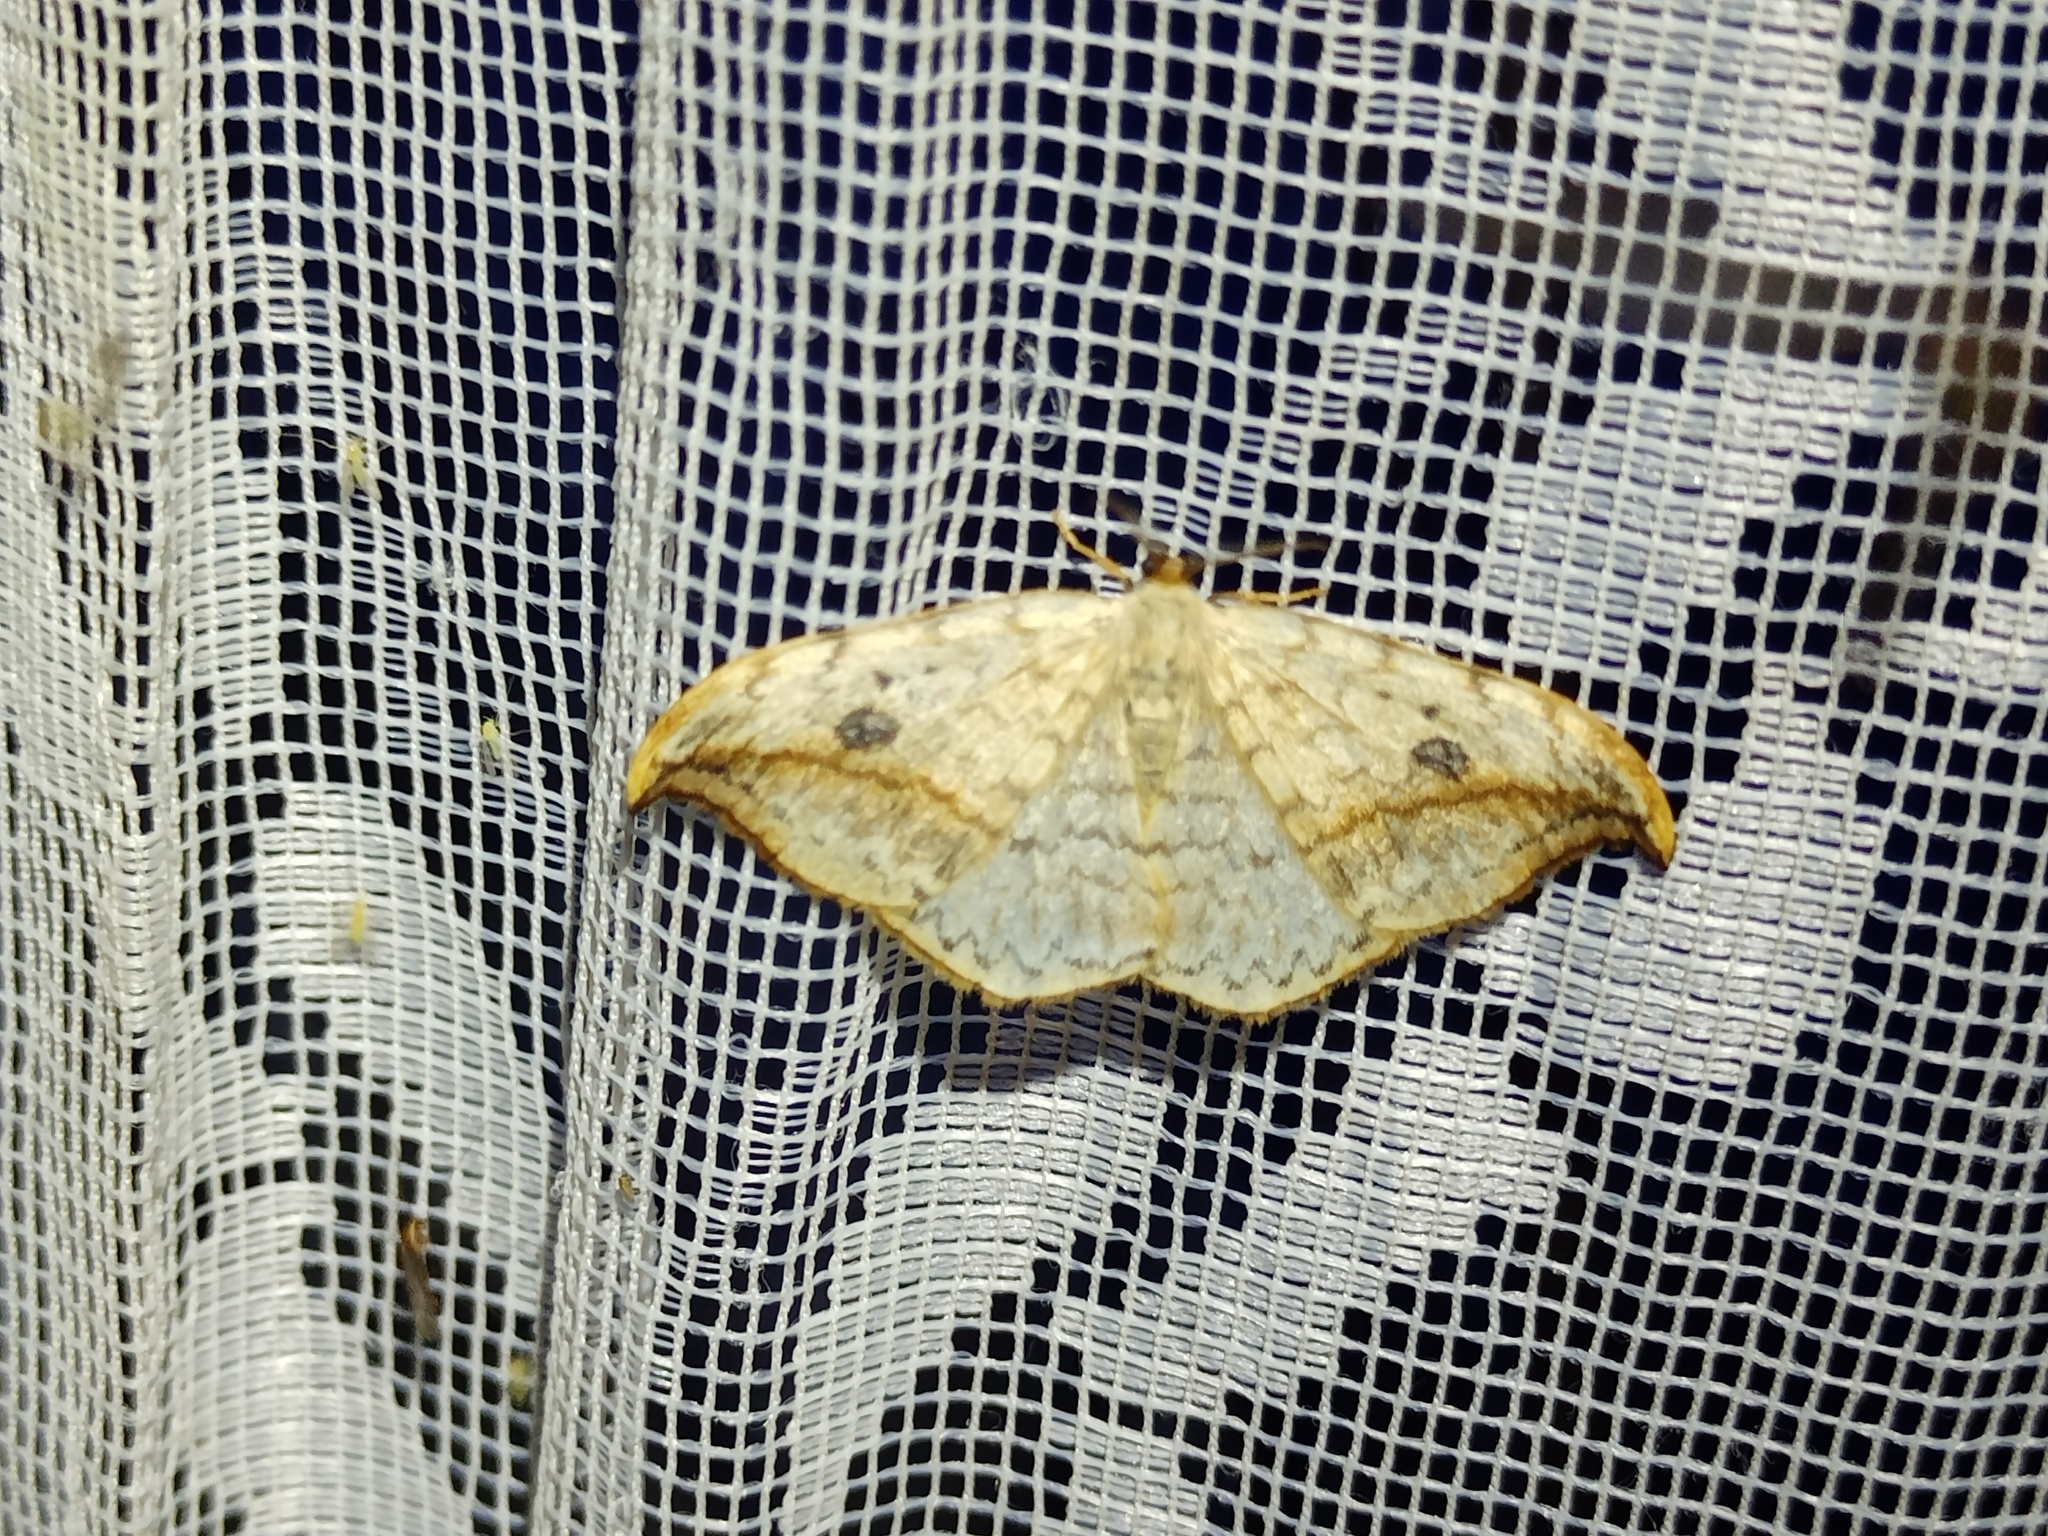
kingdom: Animalia
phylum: Arthropoda
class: Insecta
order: Lepidoptera
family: Drepanidae
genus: Drepana
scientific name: Drepana falcataria
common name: Pebble hook-tip
